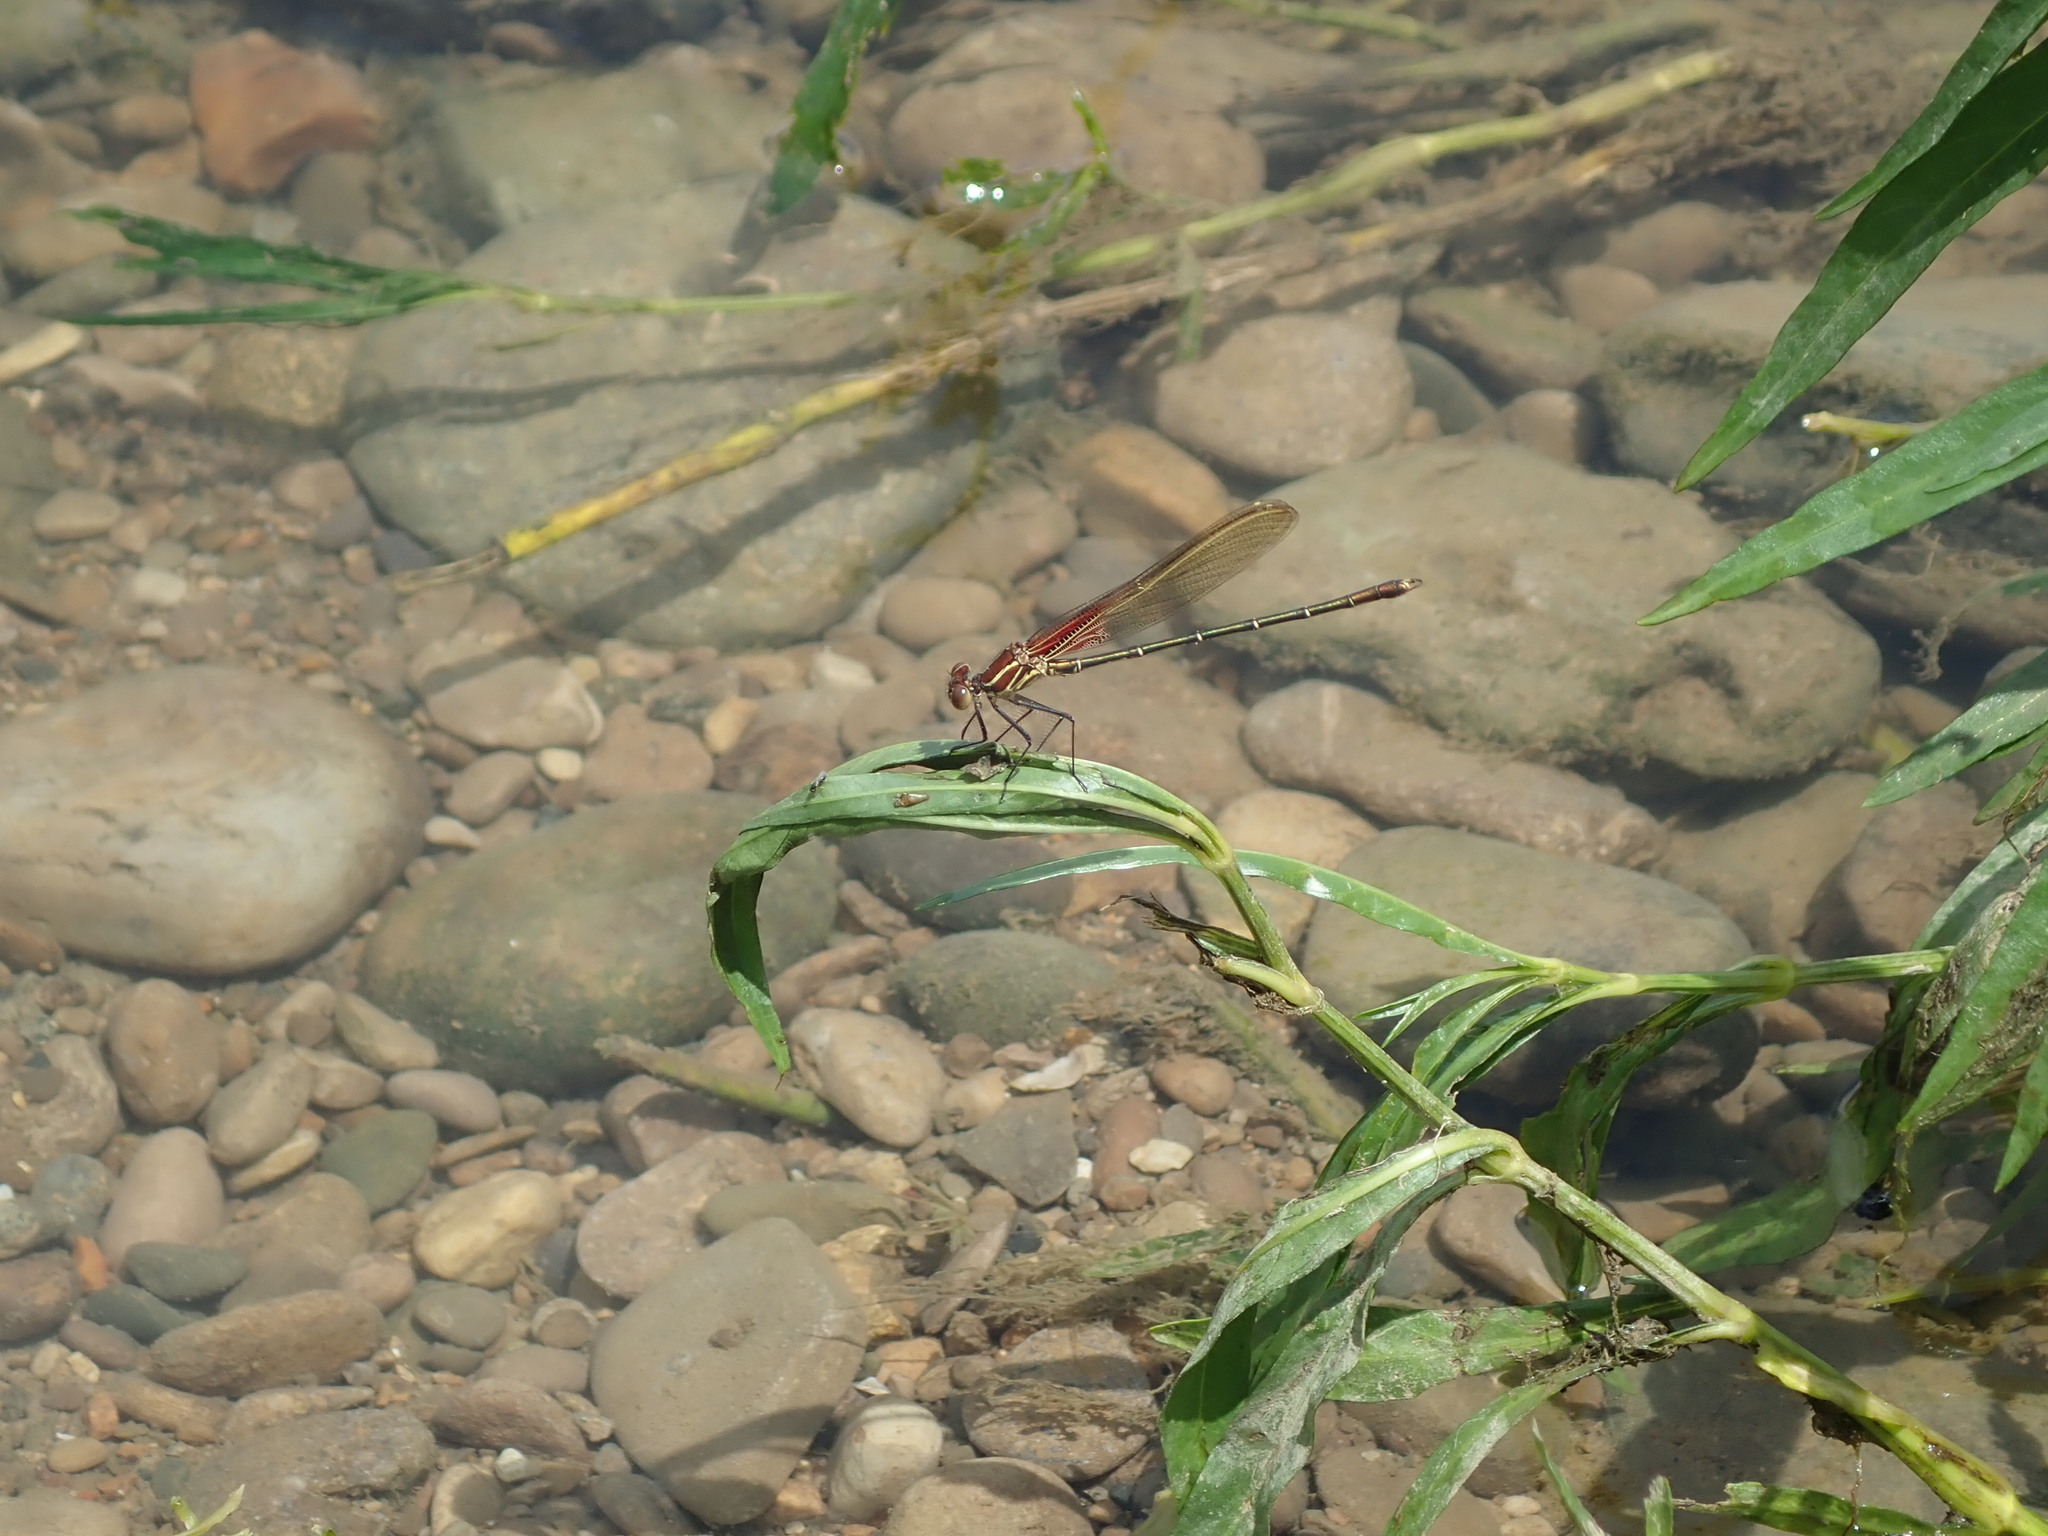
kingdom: Animalia
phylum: Arthropoda
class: Insecta
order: Odonata
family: Calopterygidae
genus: Hetaerina
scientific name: Hetaerina americana
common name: American rubyspot
